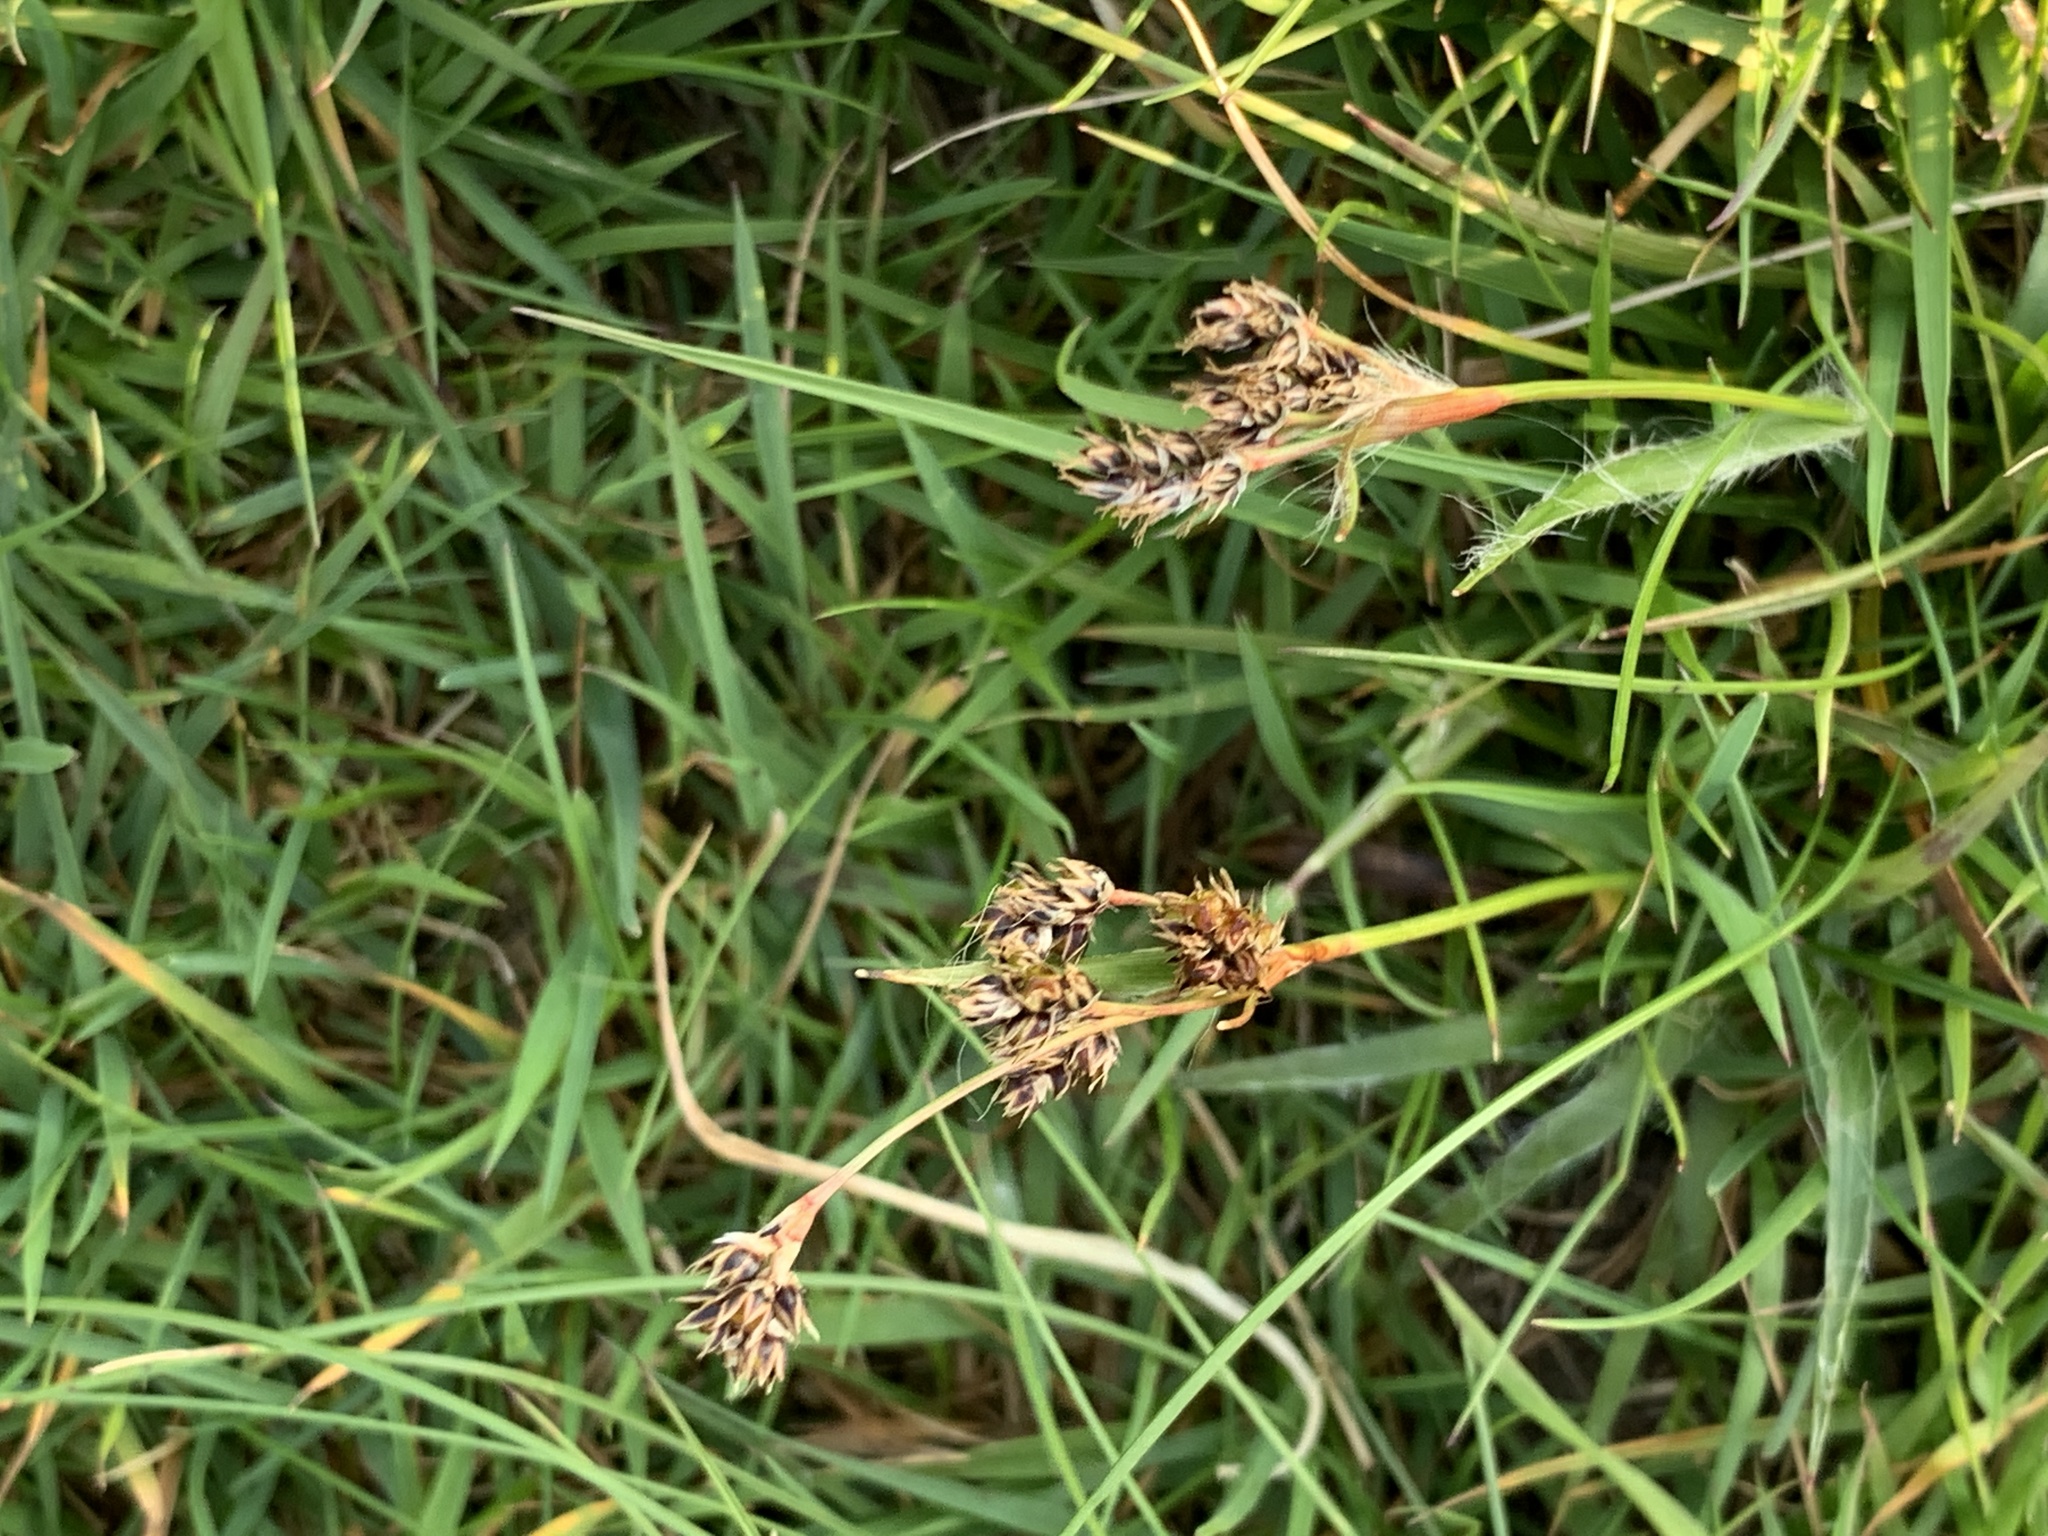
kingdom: Plantae
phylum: Tracheophyta
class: Liliopsida
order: Poales
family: Juncaceae
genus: Luzula
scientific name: Luzula campestris
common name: Field wood-rush
